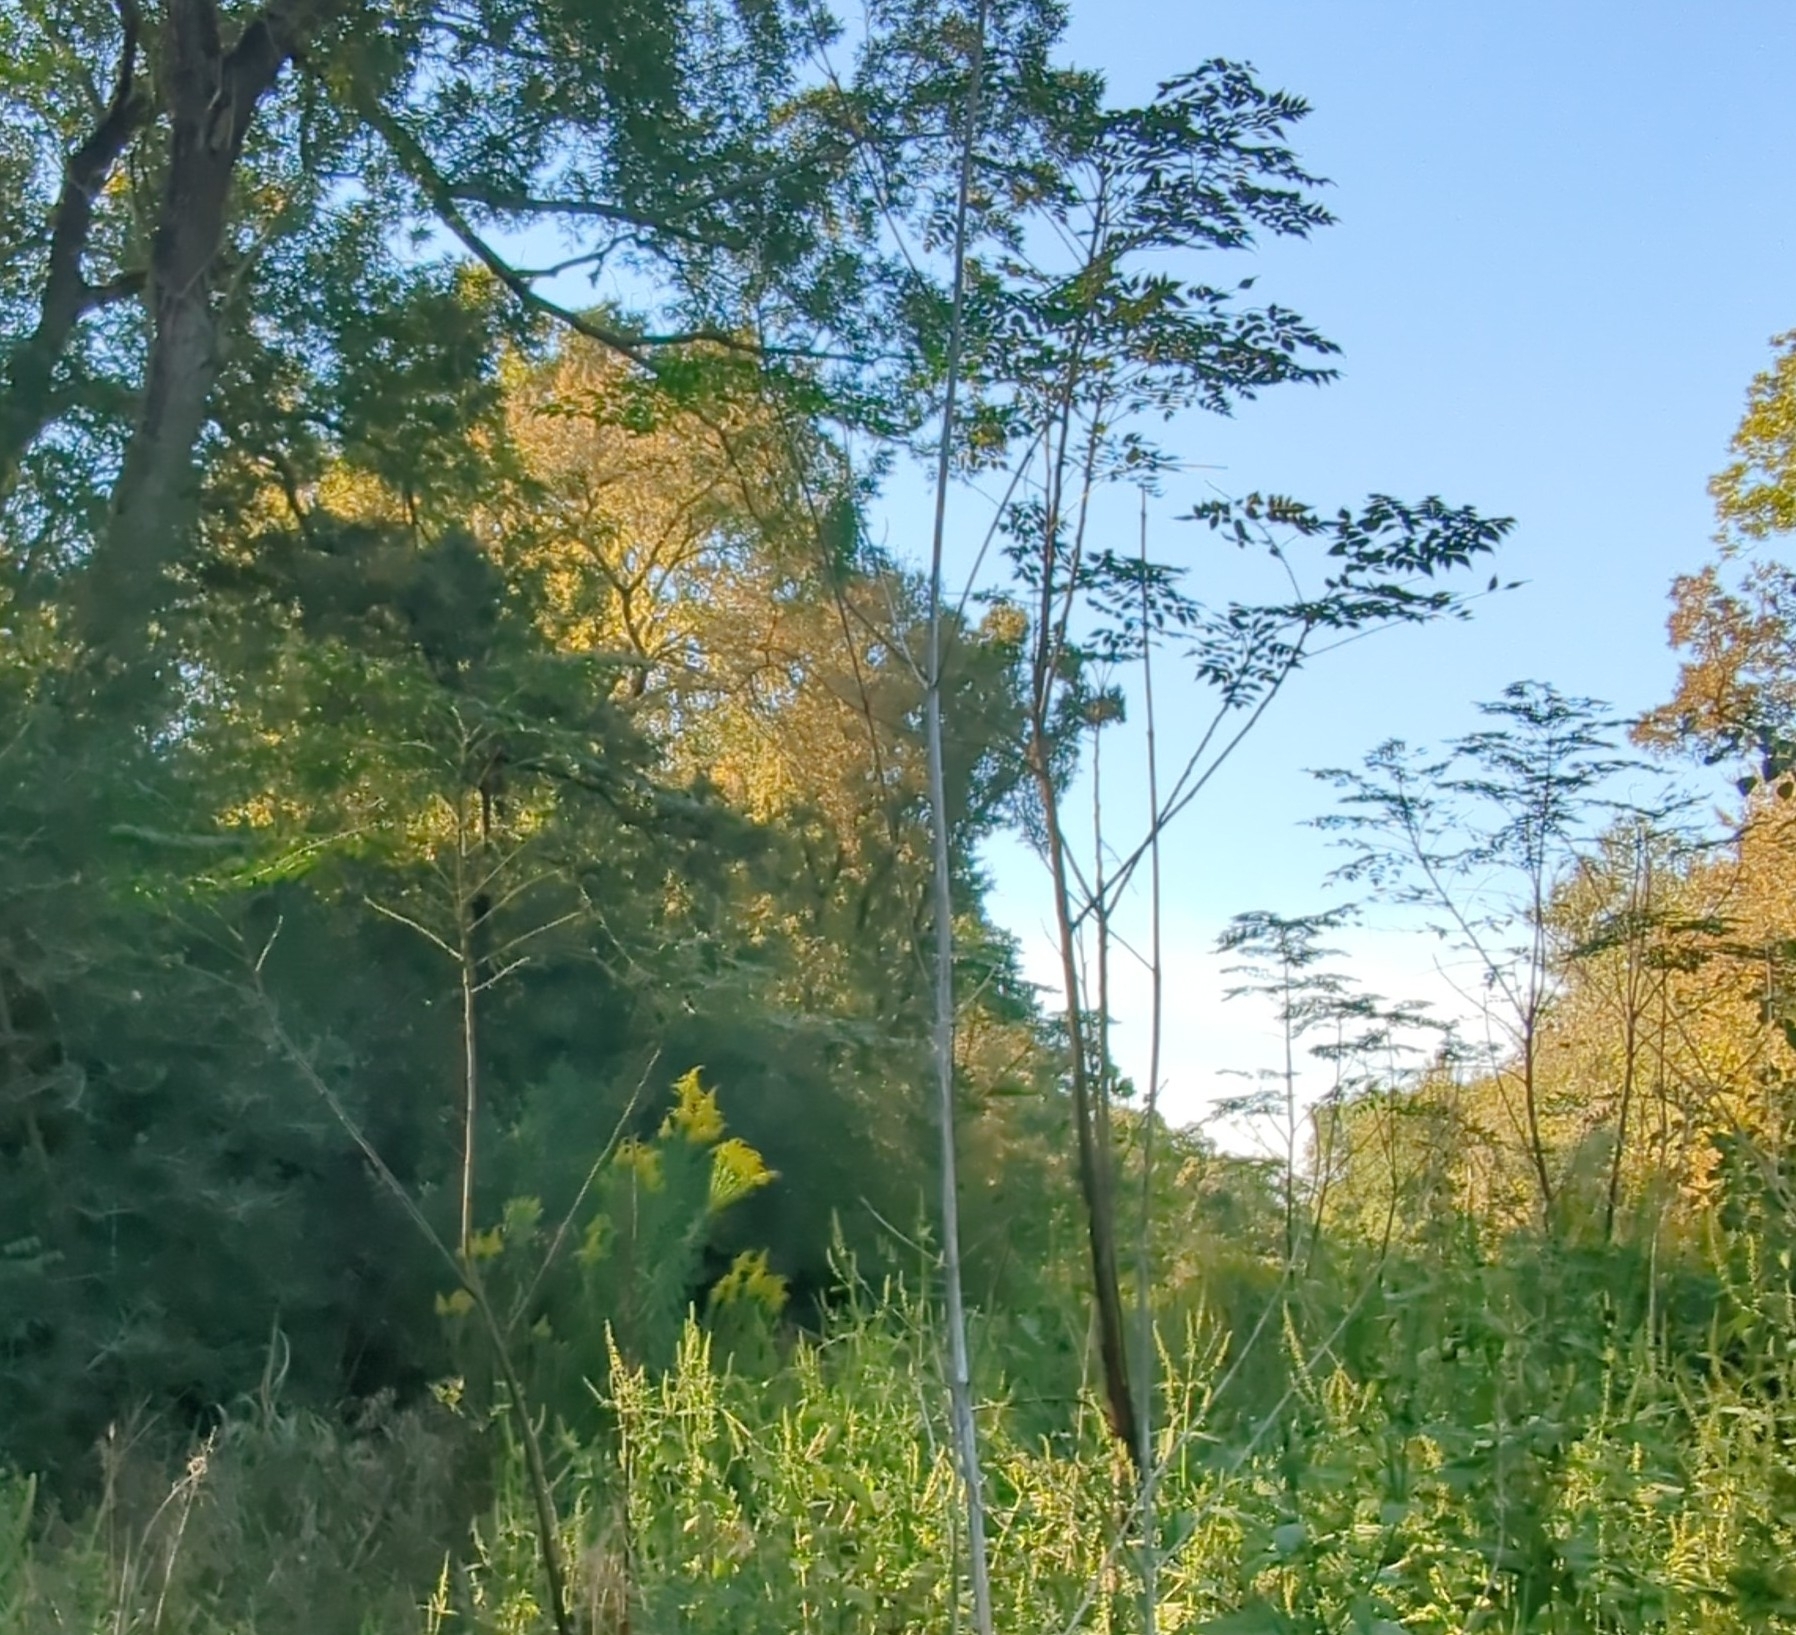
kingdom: Plantae
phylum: Tracheophyta
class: Magnoliopsida
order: Sapindales
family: Meliaceae
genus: Melia
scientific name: Melia azedarach
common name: Chinaberrytree
